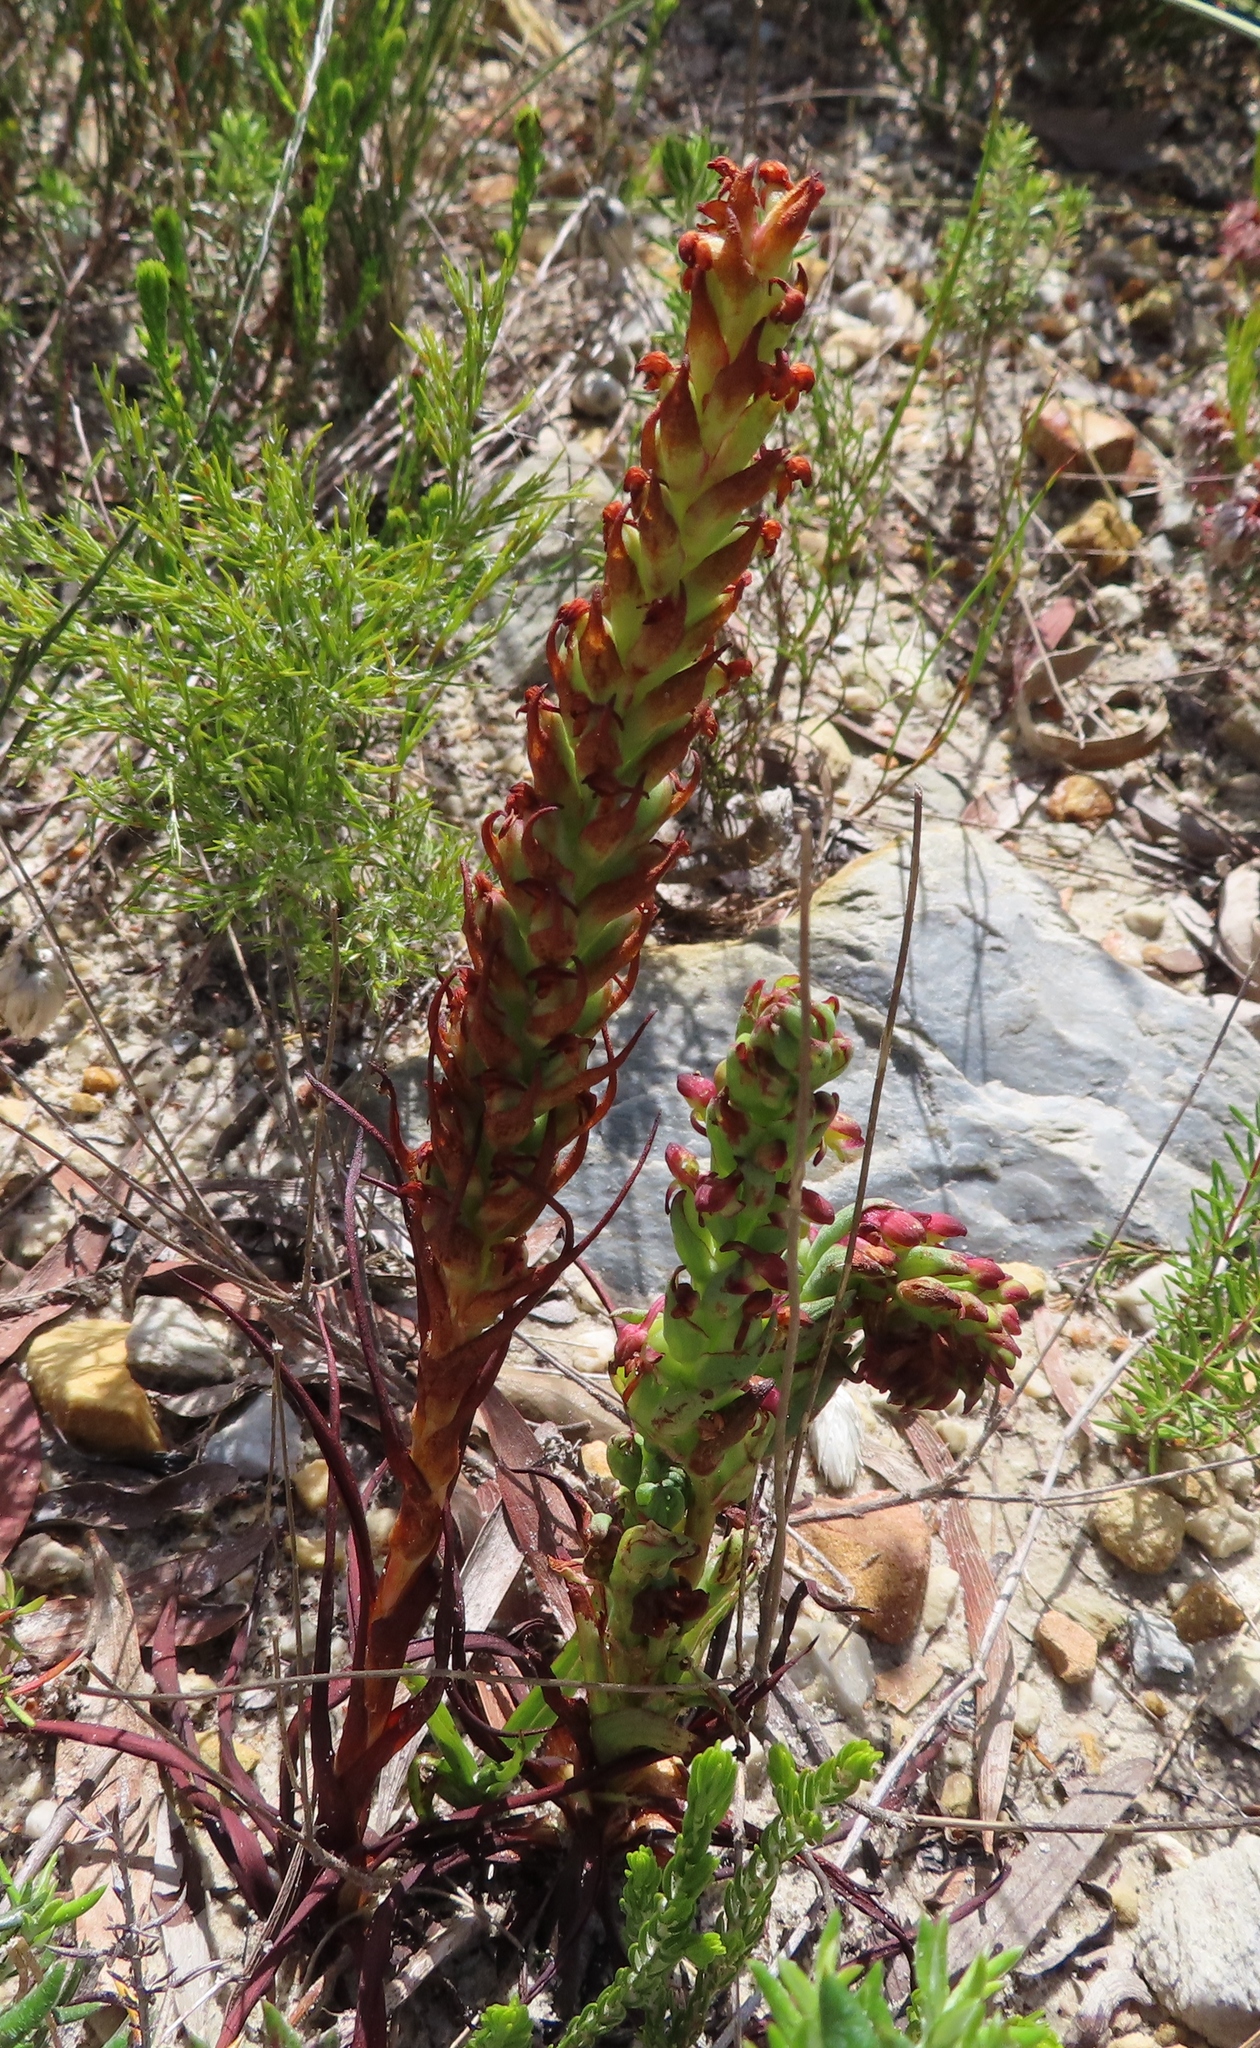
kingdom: Plantae
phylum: Tracheophyta
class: Liliopsida
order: Asparagales
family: Orchidaceae
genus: Disa
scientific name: Disa bracteata
